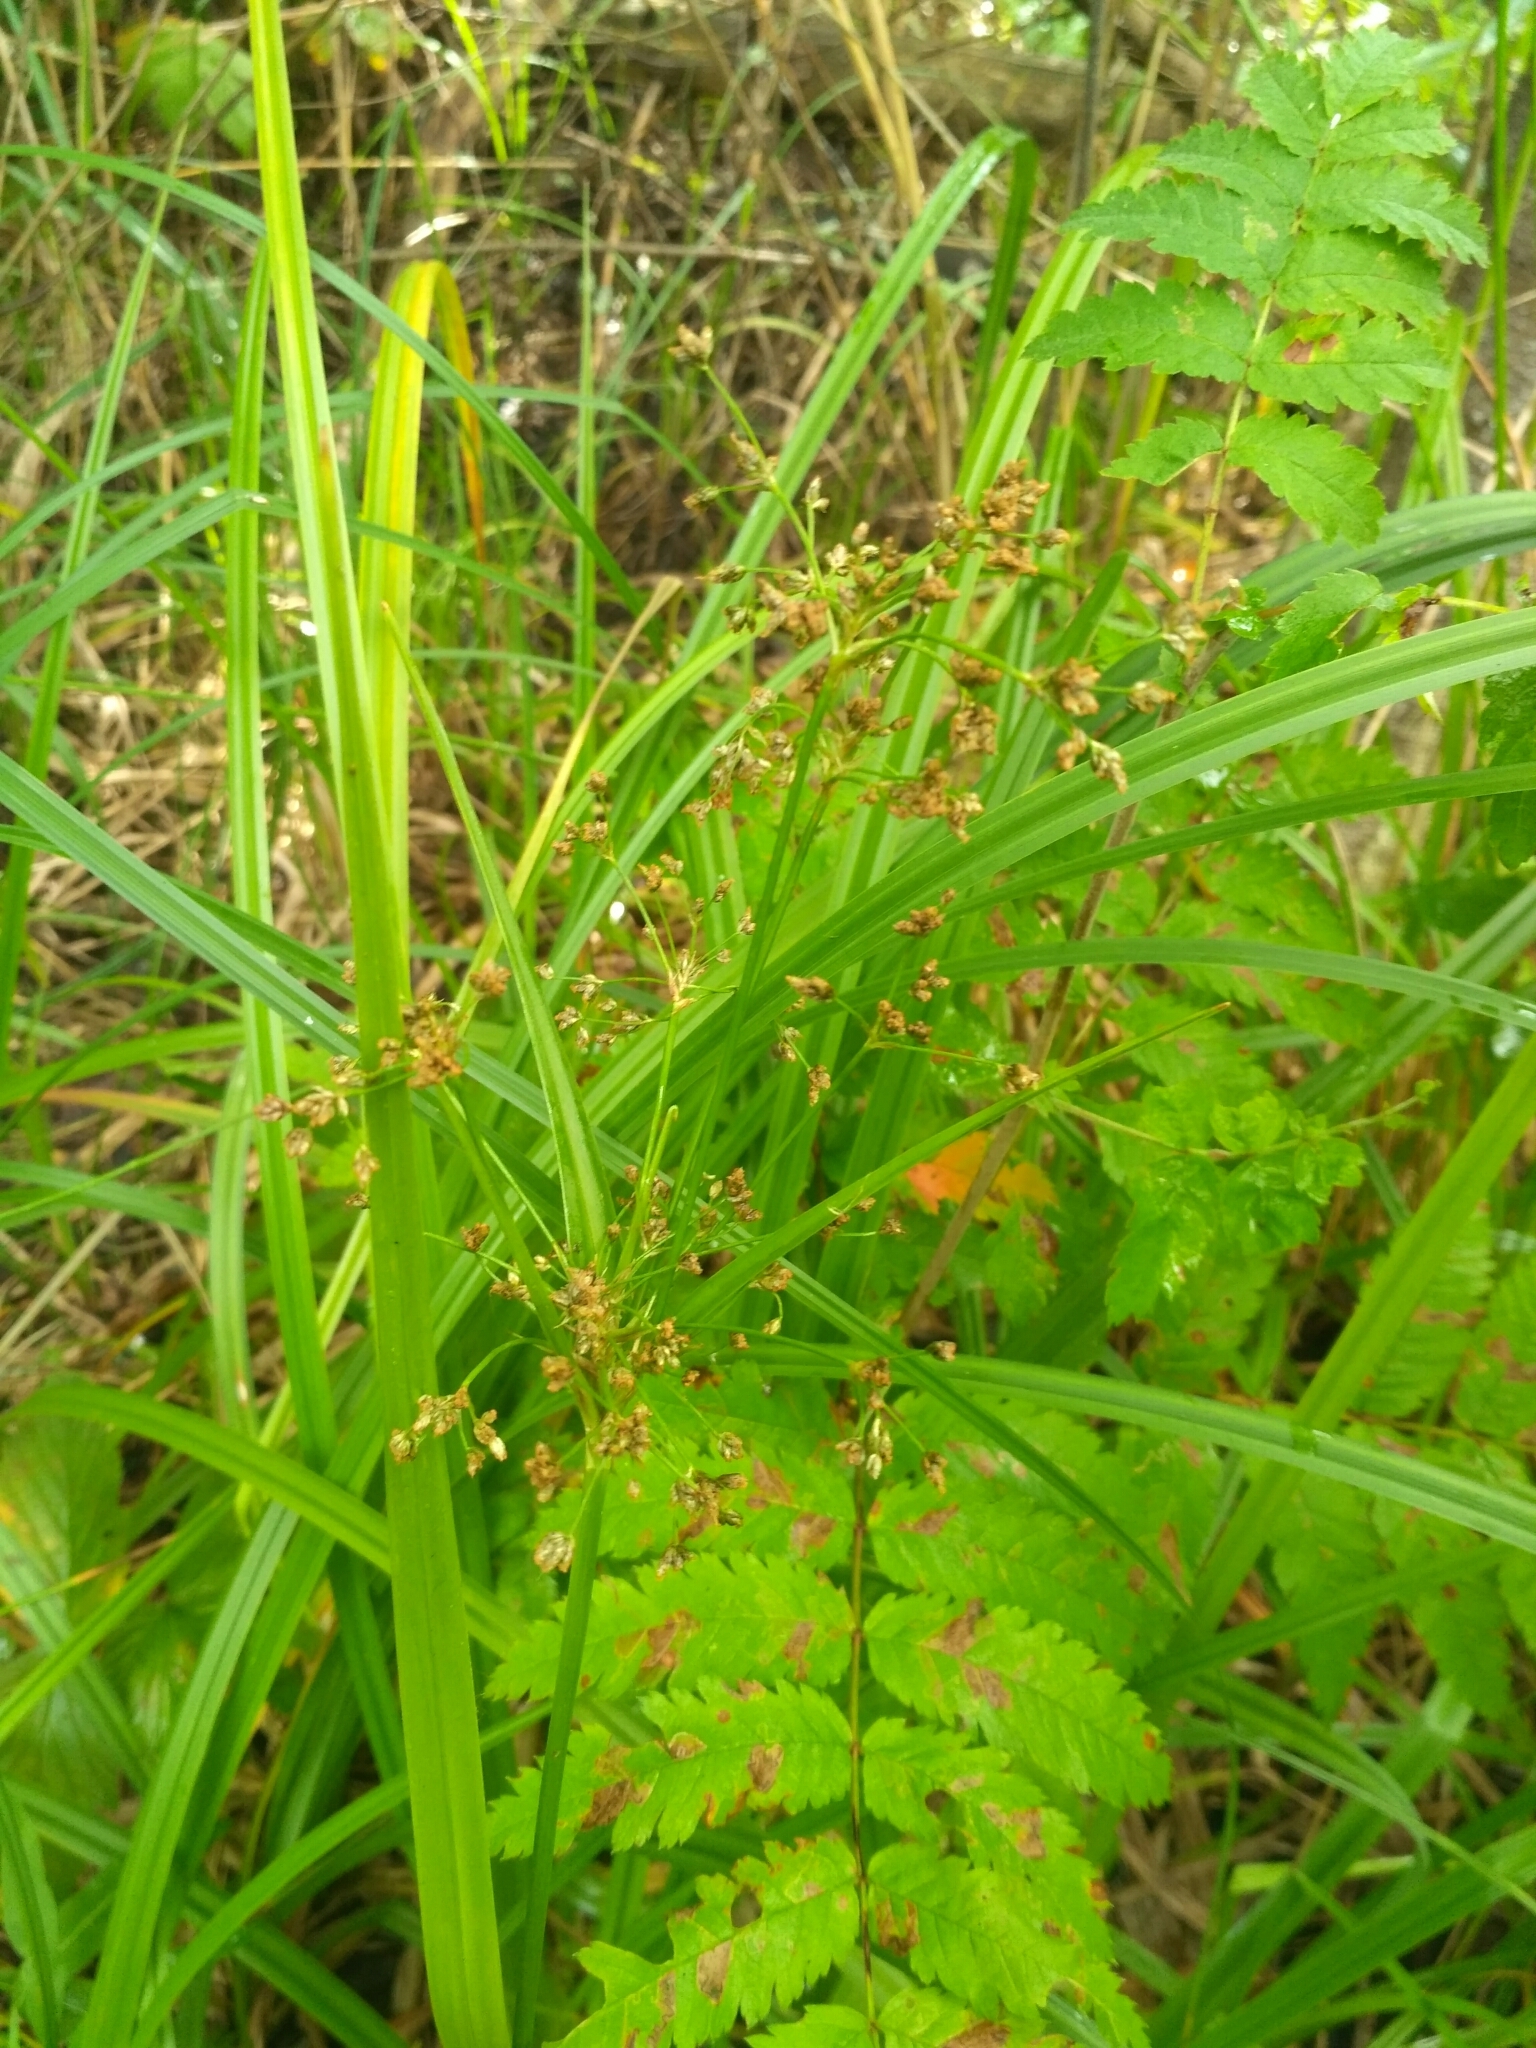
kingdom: Plantae
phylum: Tracheophyta
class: Liliopsida
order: Poales
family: Cyperaceae
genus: Scirpus
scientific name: Scirpus sylvaticus
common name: Wood club-rush
